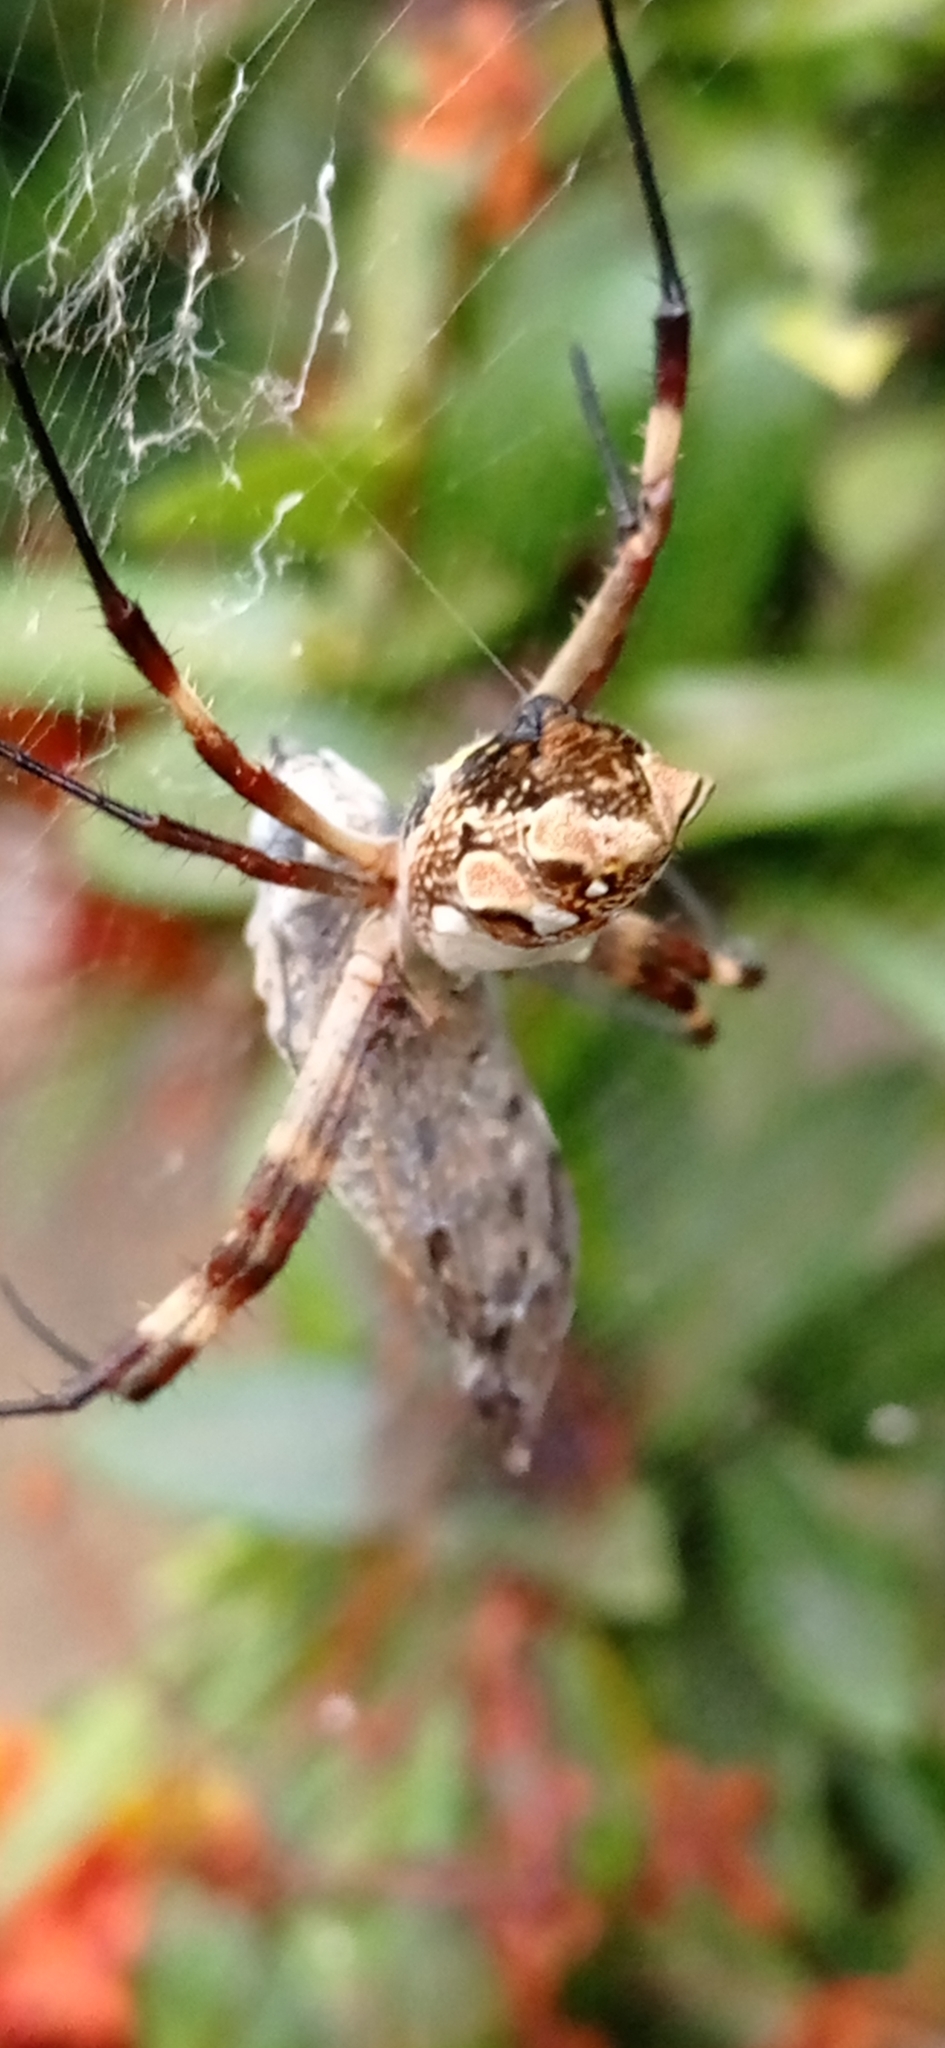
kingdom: Animalia
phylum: Arthropoda
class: Arachnida
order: Araneae
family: Araneidae
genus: Argiope
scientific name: Argiope argentata
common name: Orb weavers
